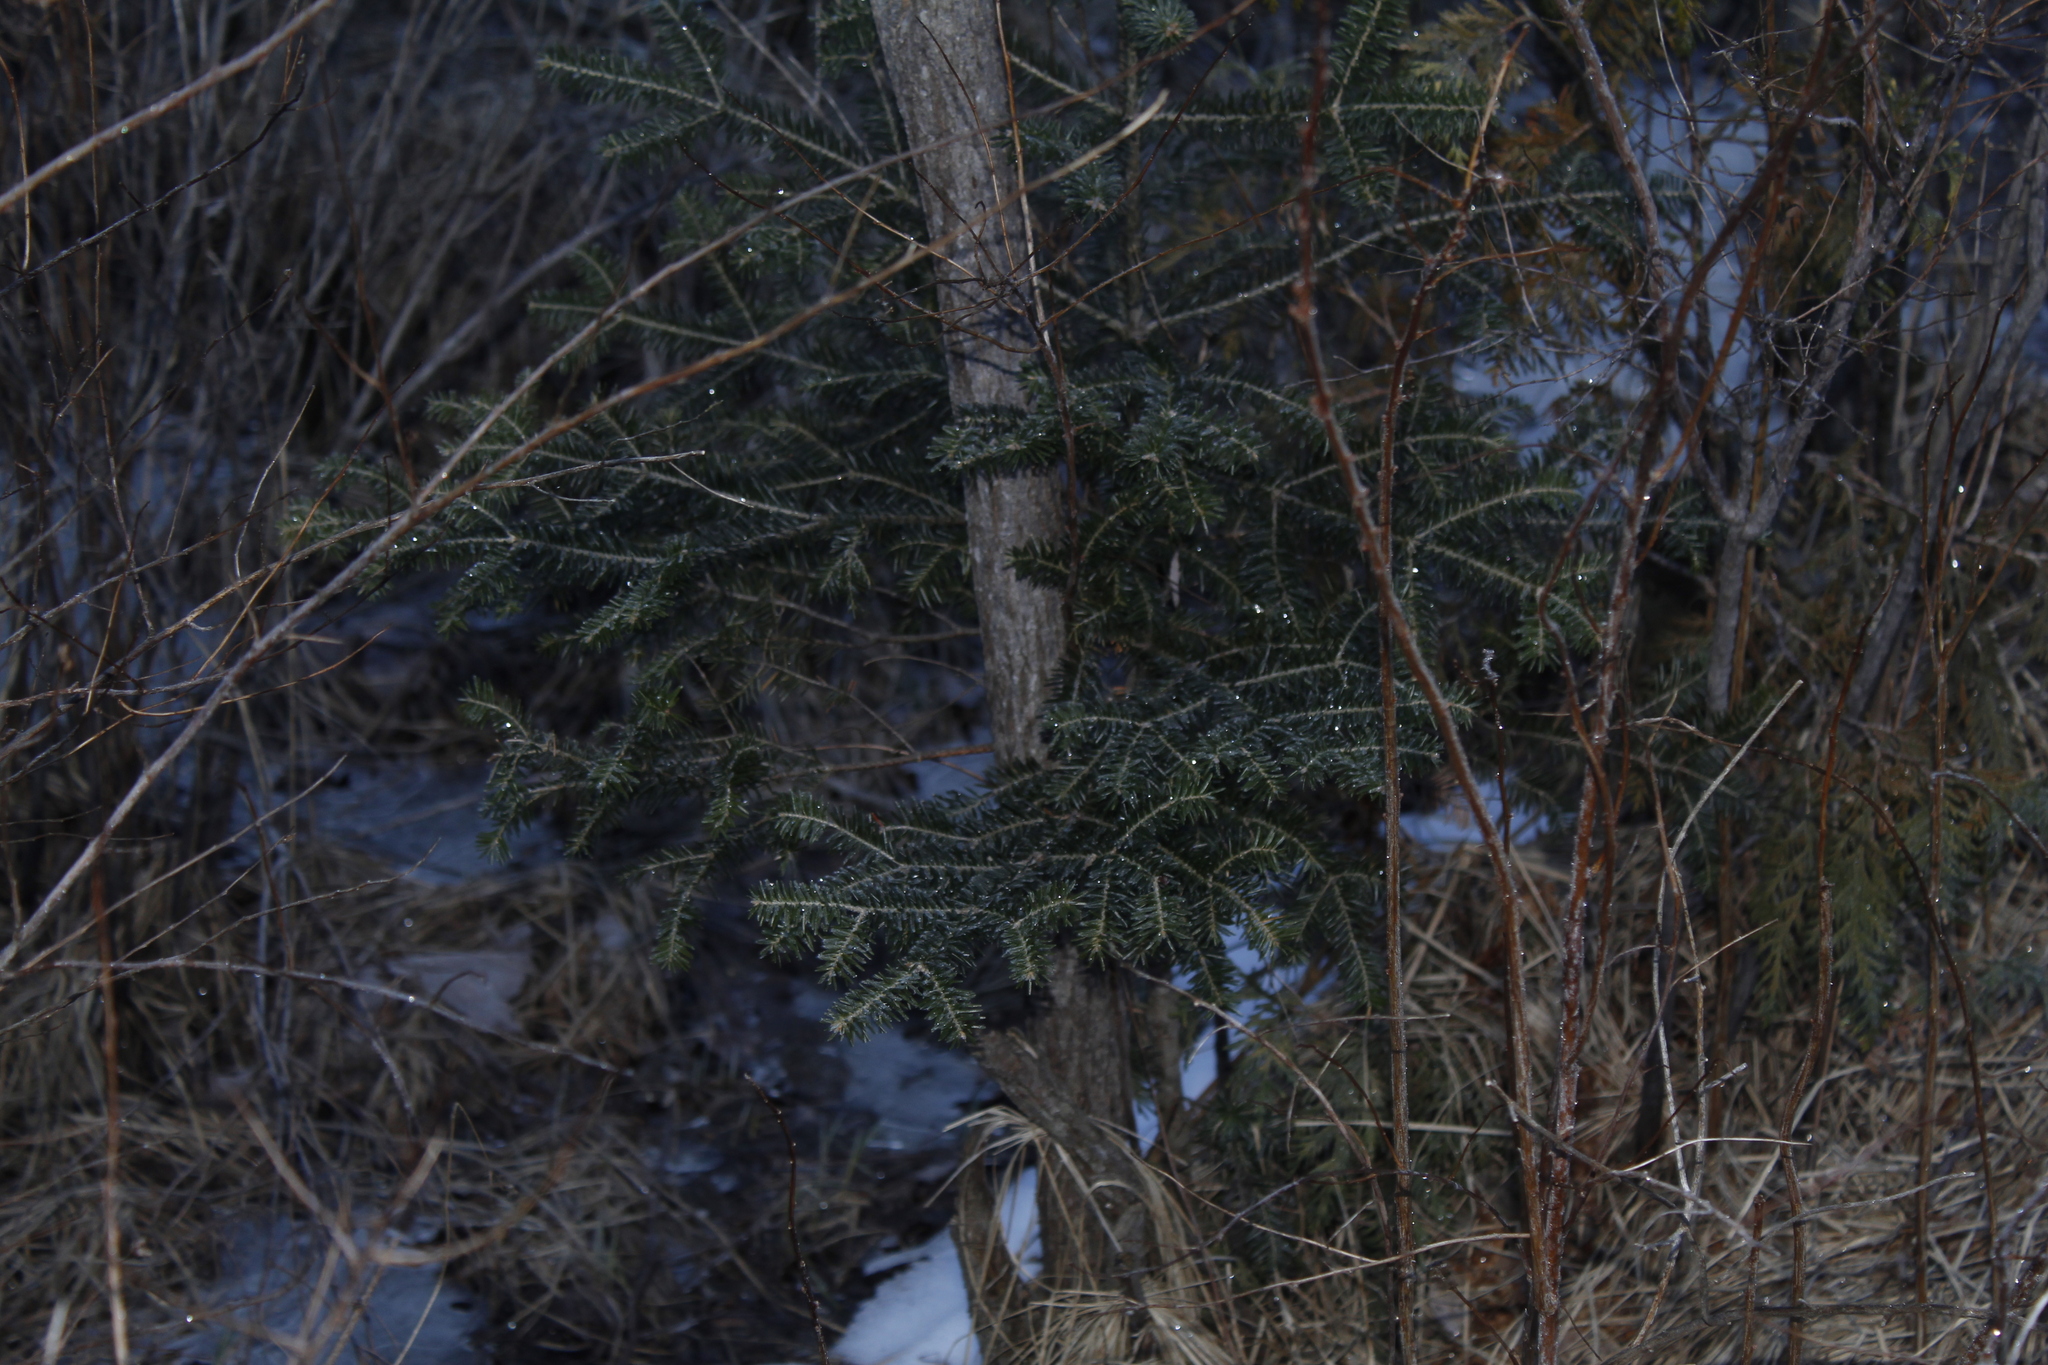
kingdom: Plantae
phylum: Tracheophyta
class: Pinopsida
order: Pinales
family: Pinaceae
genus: Abies
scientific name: Abies balsamea
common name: Balsam fir
